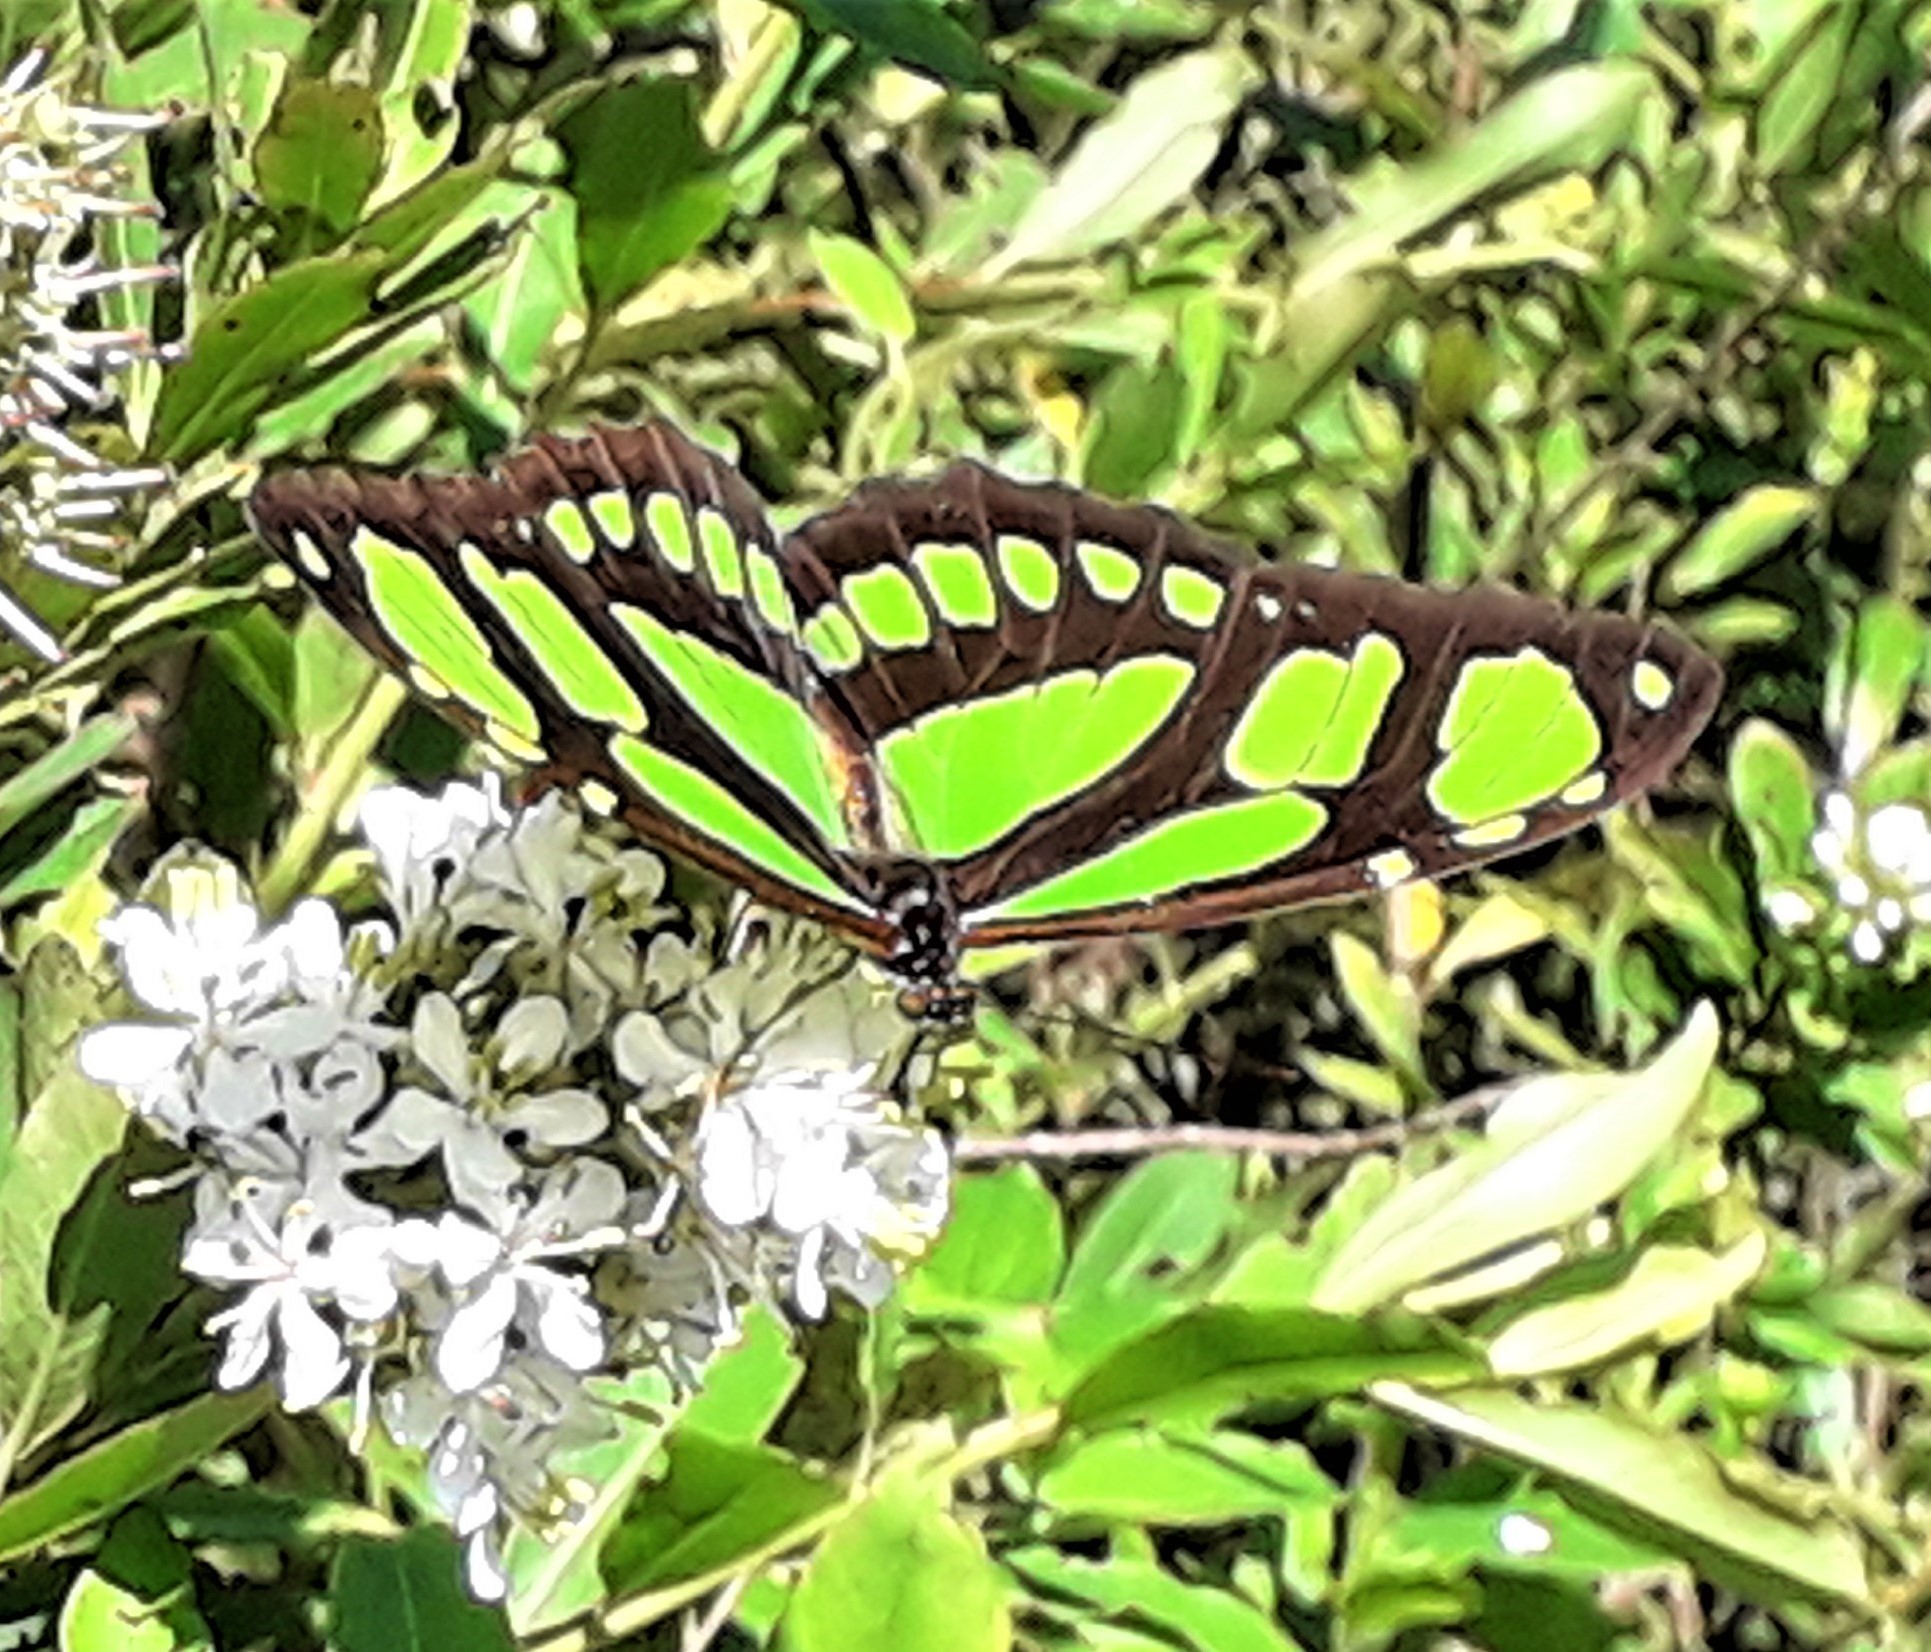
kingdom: Animalia
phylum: Arthropoda
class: Insecta
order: Lepidoptera
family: Nymphalidae
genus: Philaethria
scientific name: Philaethria dido
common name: Scarce bamboo page
